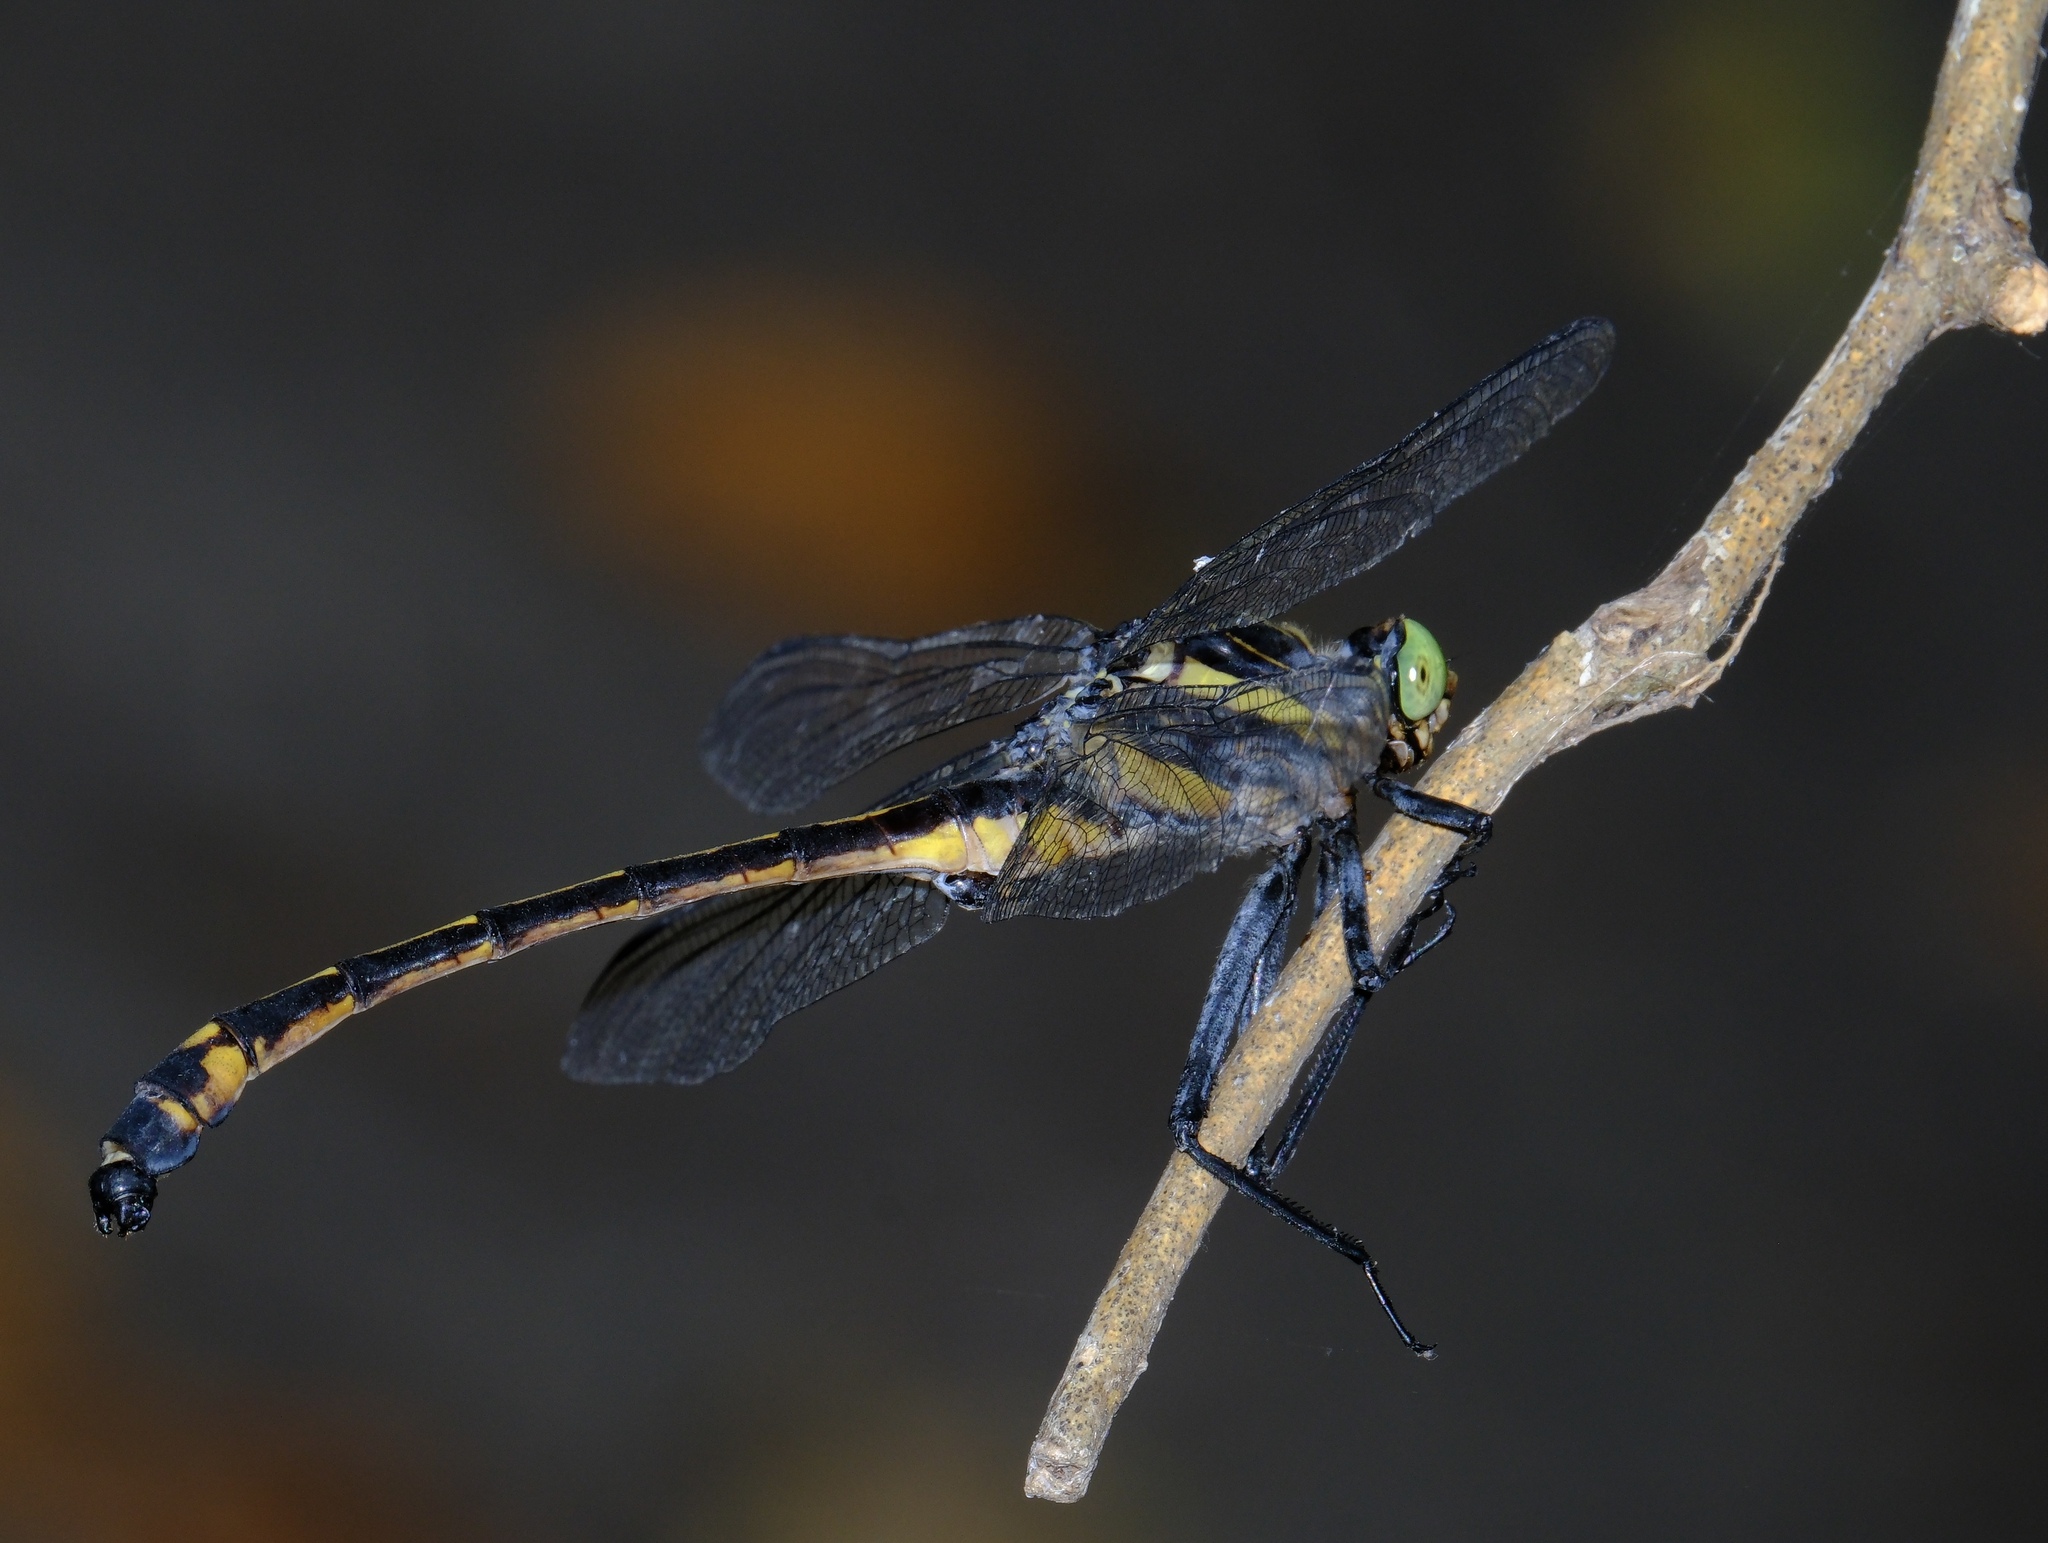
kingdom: Animalia
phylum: Arthropoda
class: Insecta
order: Odonata
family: Gomphidae
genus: Hagenius
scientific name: Hagenius brevistylus
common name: Dragonhunter
